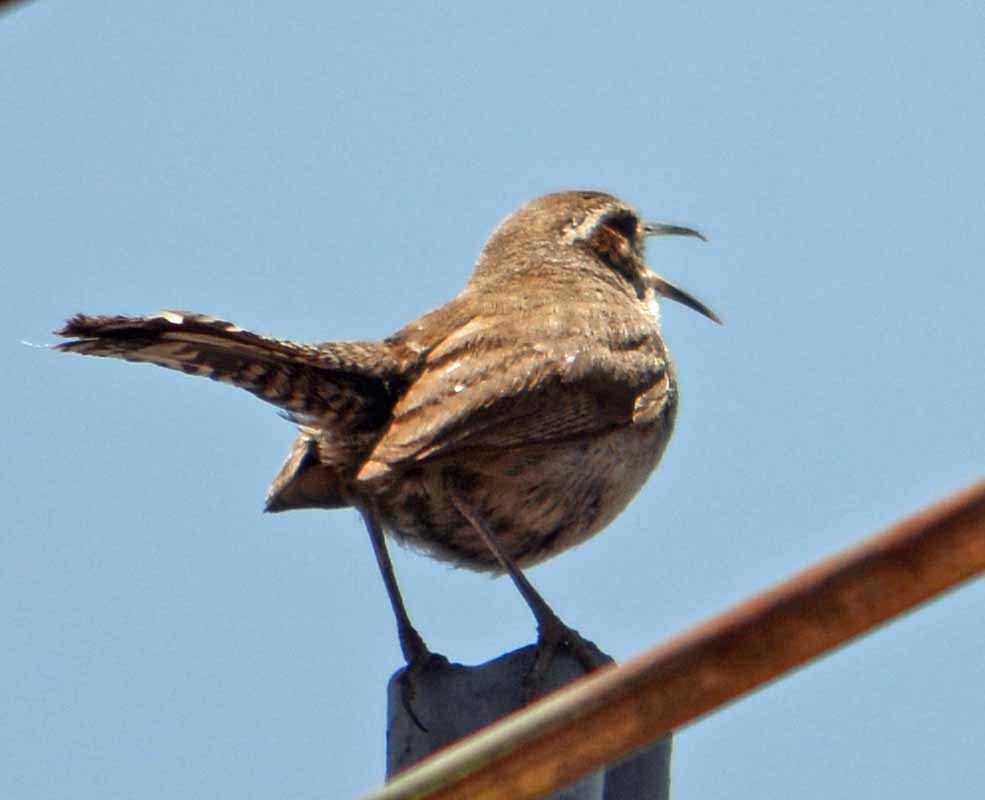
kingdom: Animalia
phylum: Chordata
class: Aves
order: Passeriformes
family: Troglodytidae
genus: Thryomanes
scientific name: Thryomanes bewickii
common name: Bewick's wren
